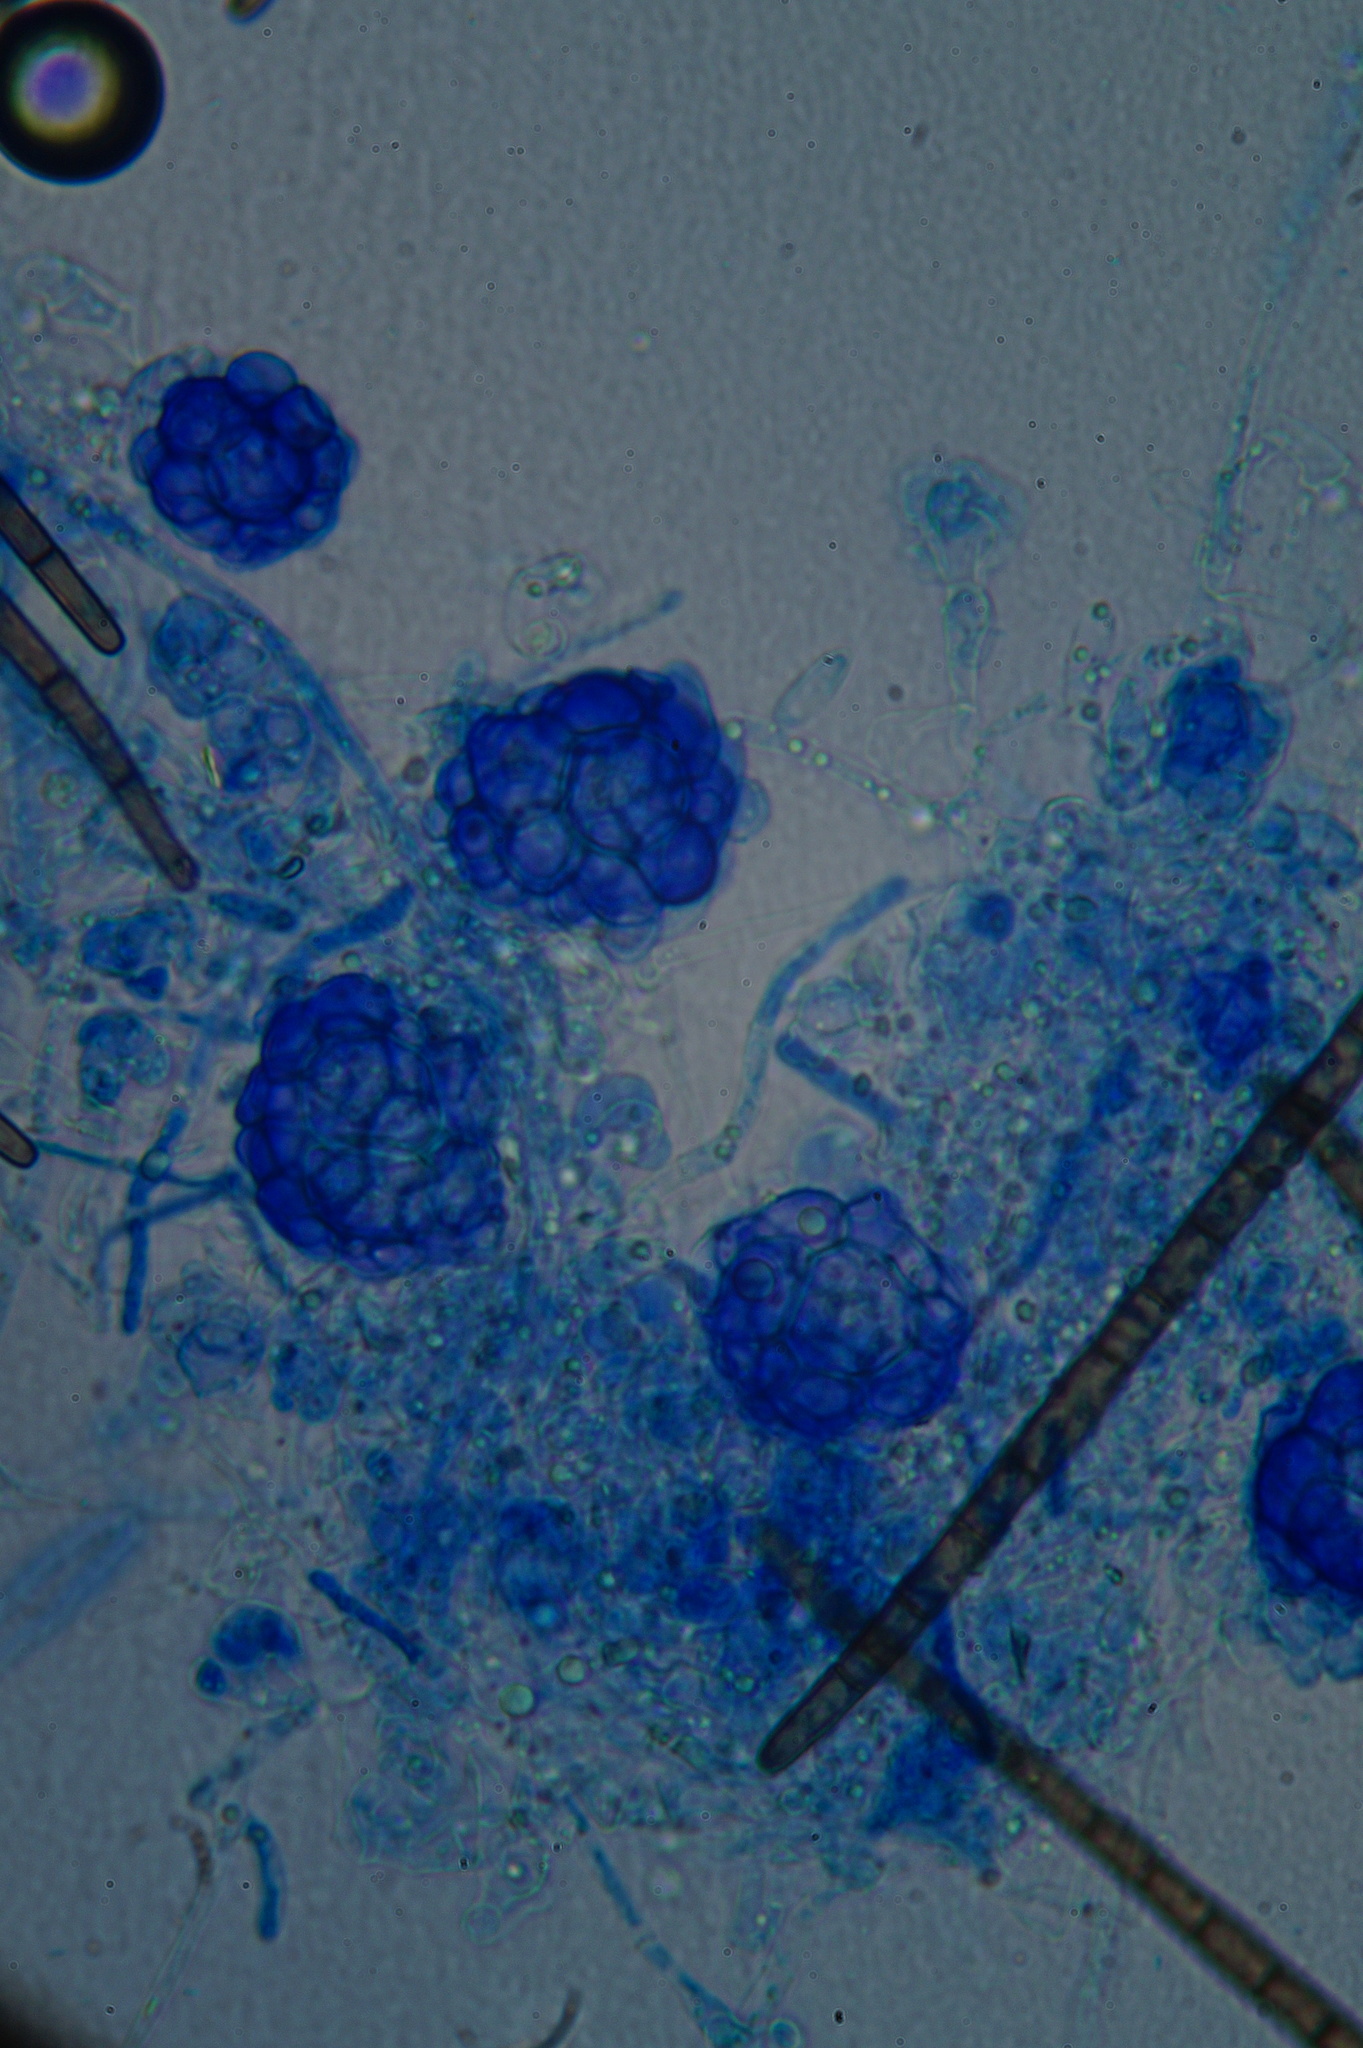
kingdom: Fungi
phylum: Ascomycota
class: Sordariomycetes
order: Hypocreales
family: Hypocreaceae
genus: Hypomyces
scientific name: Hypomyces papulasporae
